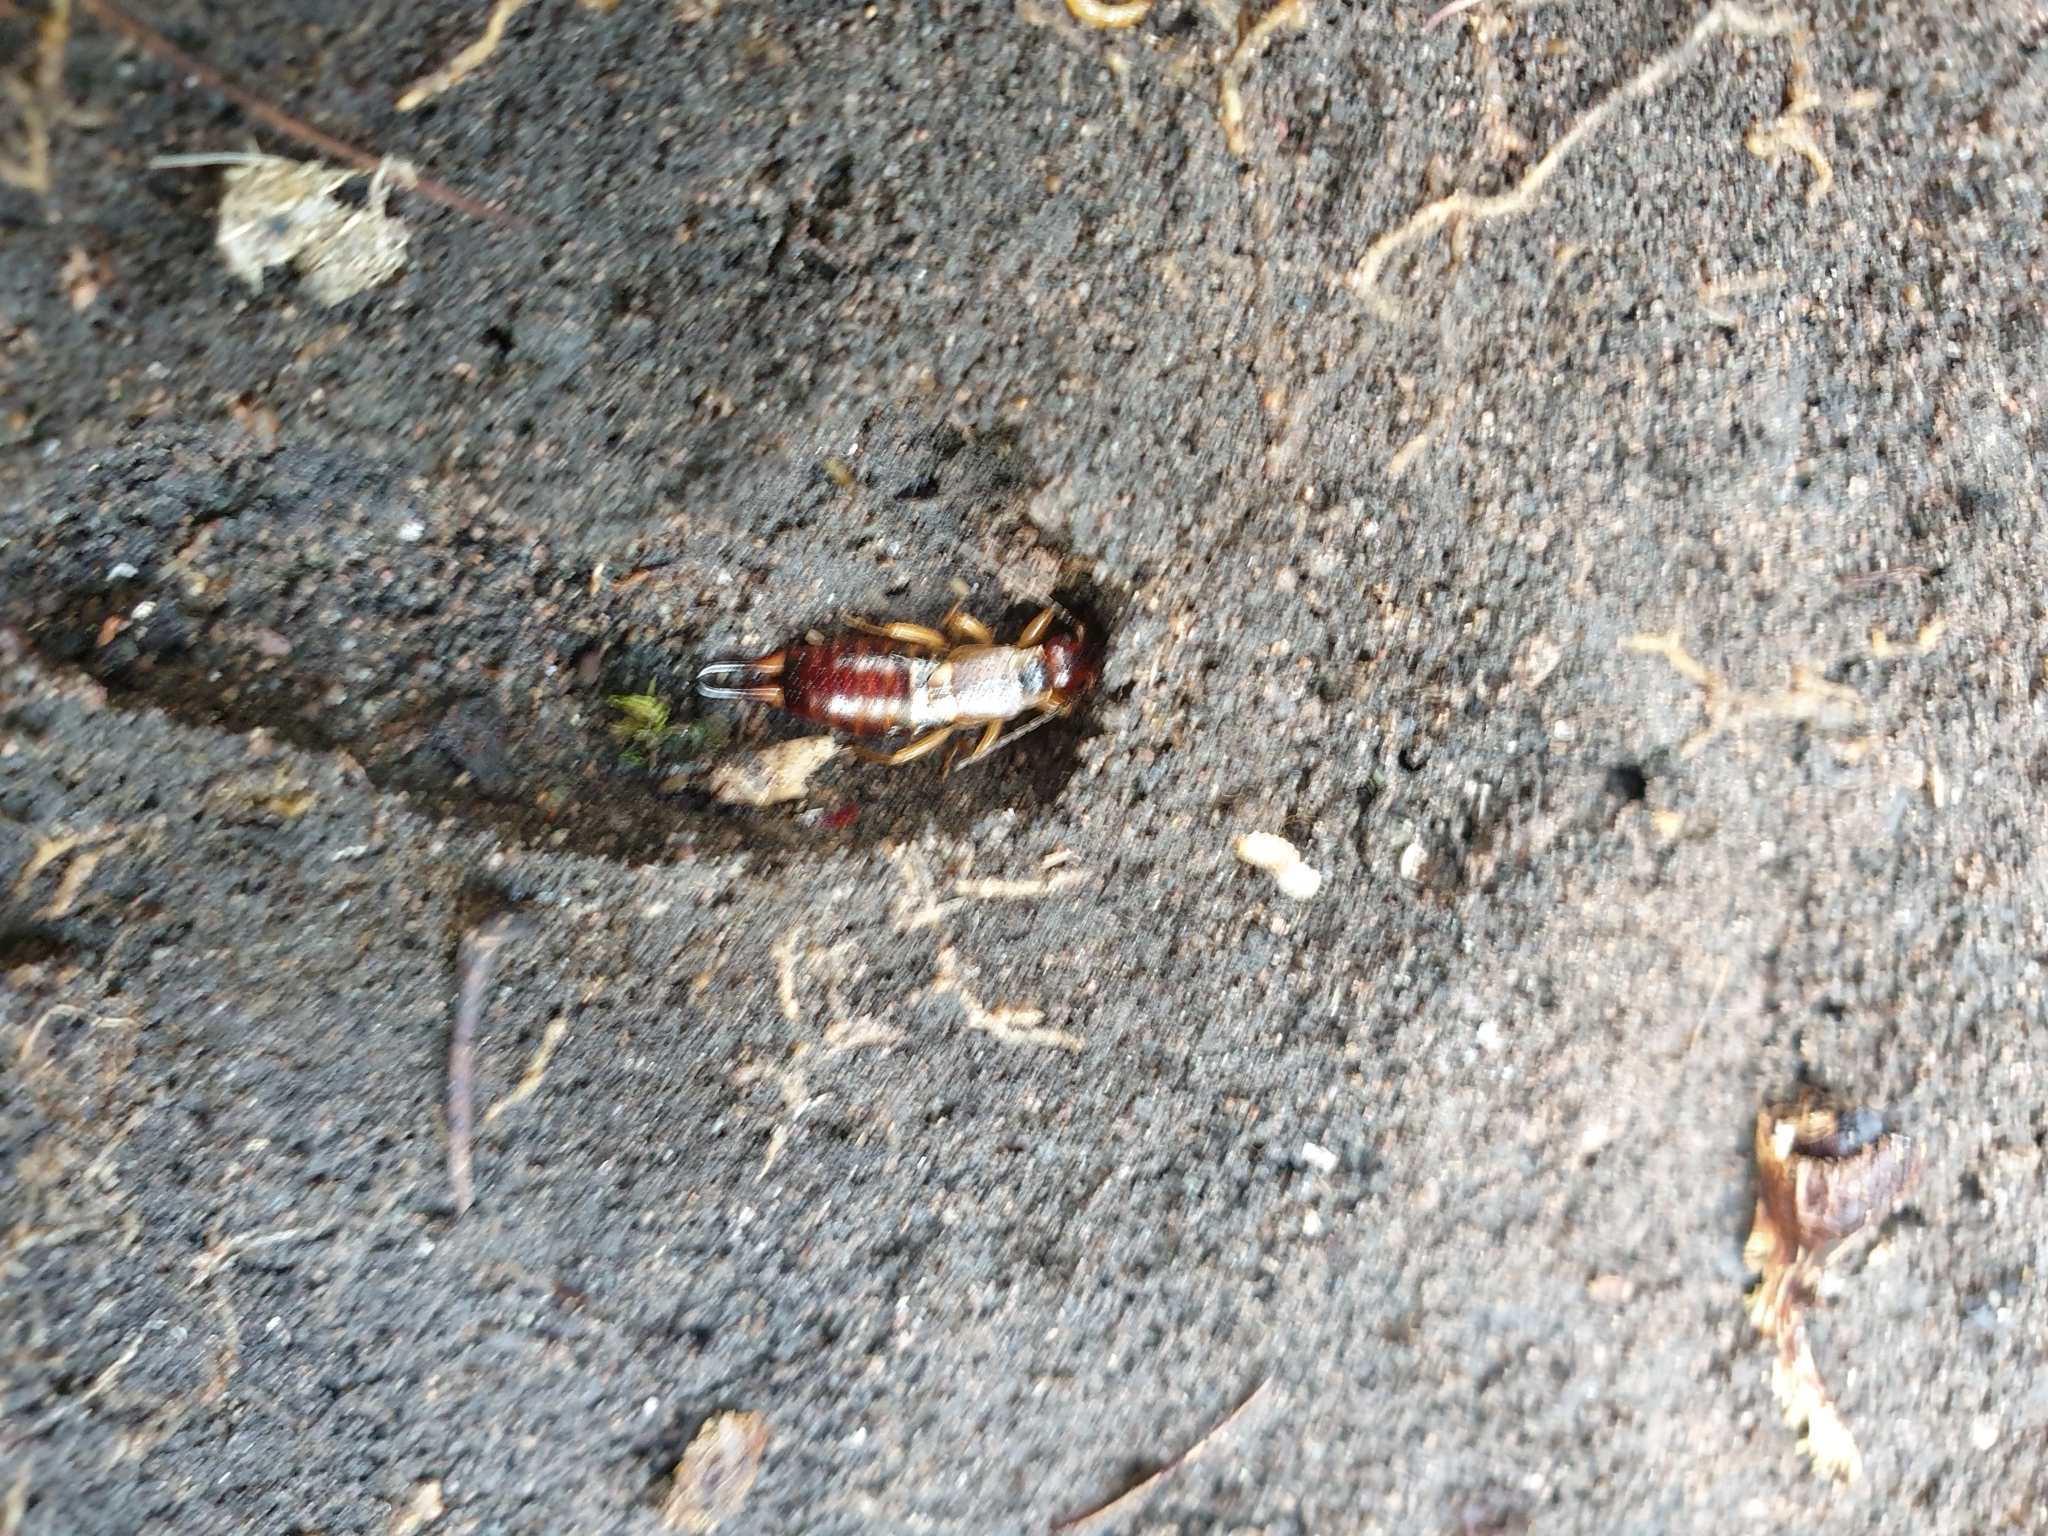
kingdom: Animalia
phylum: Arthropoda
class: Insecta
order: Dermaptera
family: Forficulidae
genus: Forficula
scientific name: Forficula
